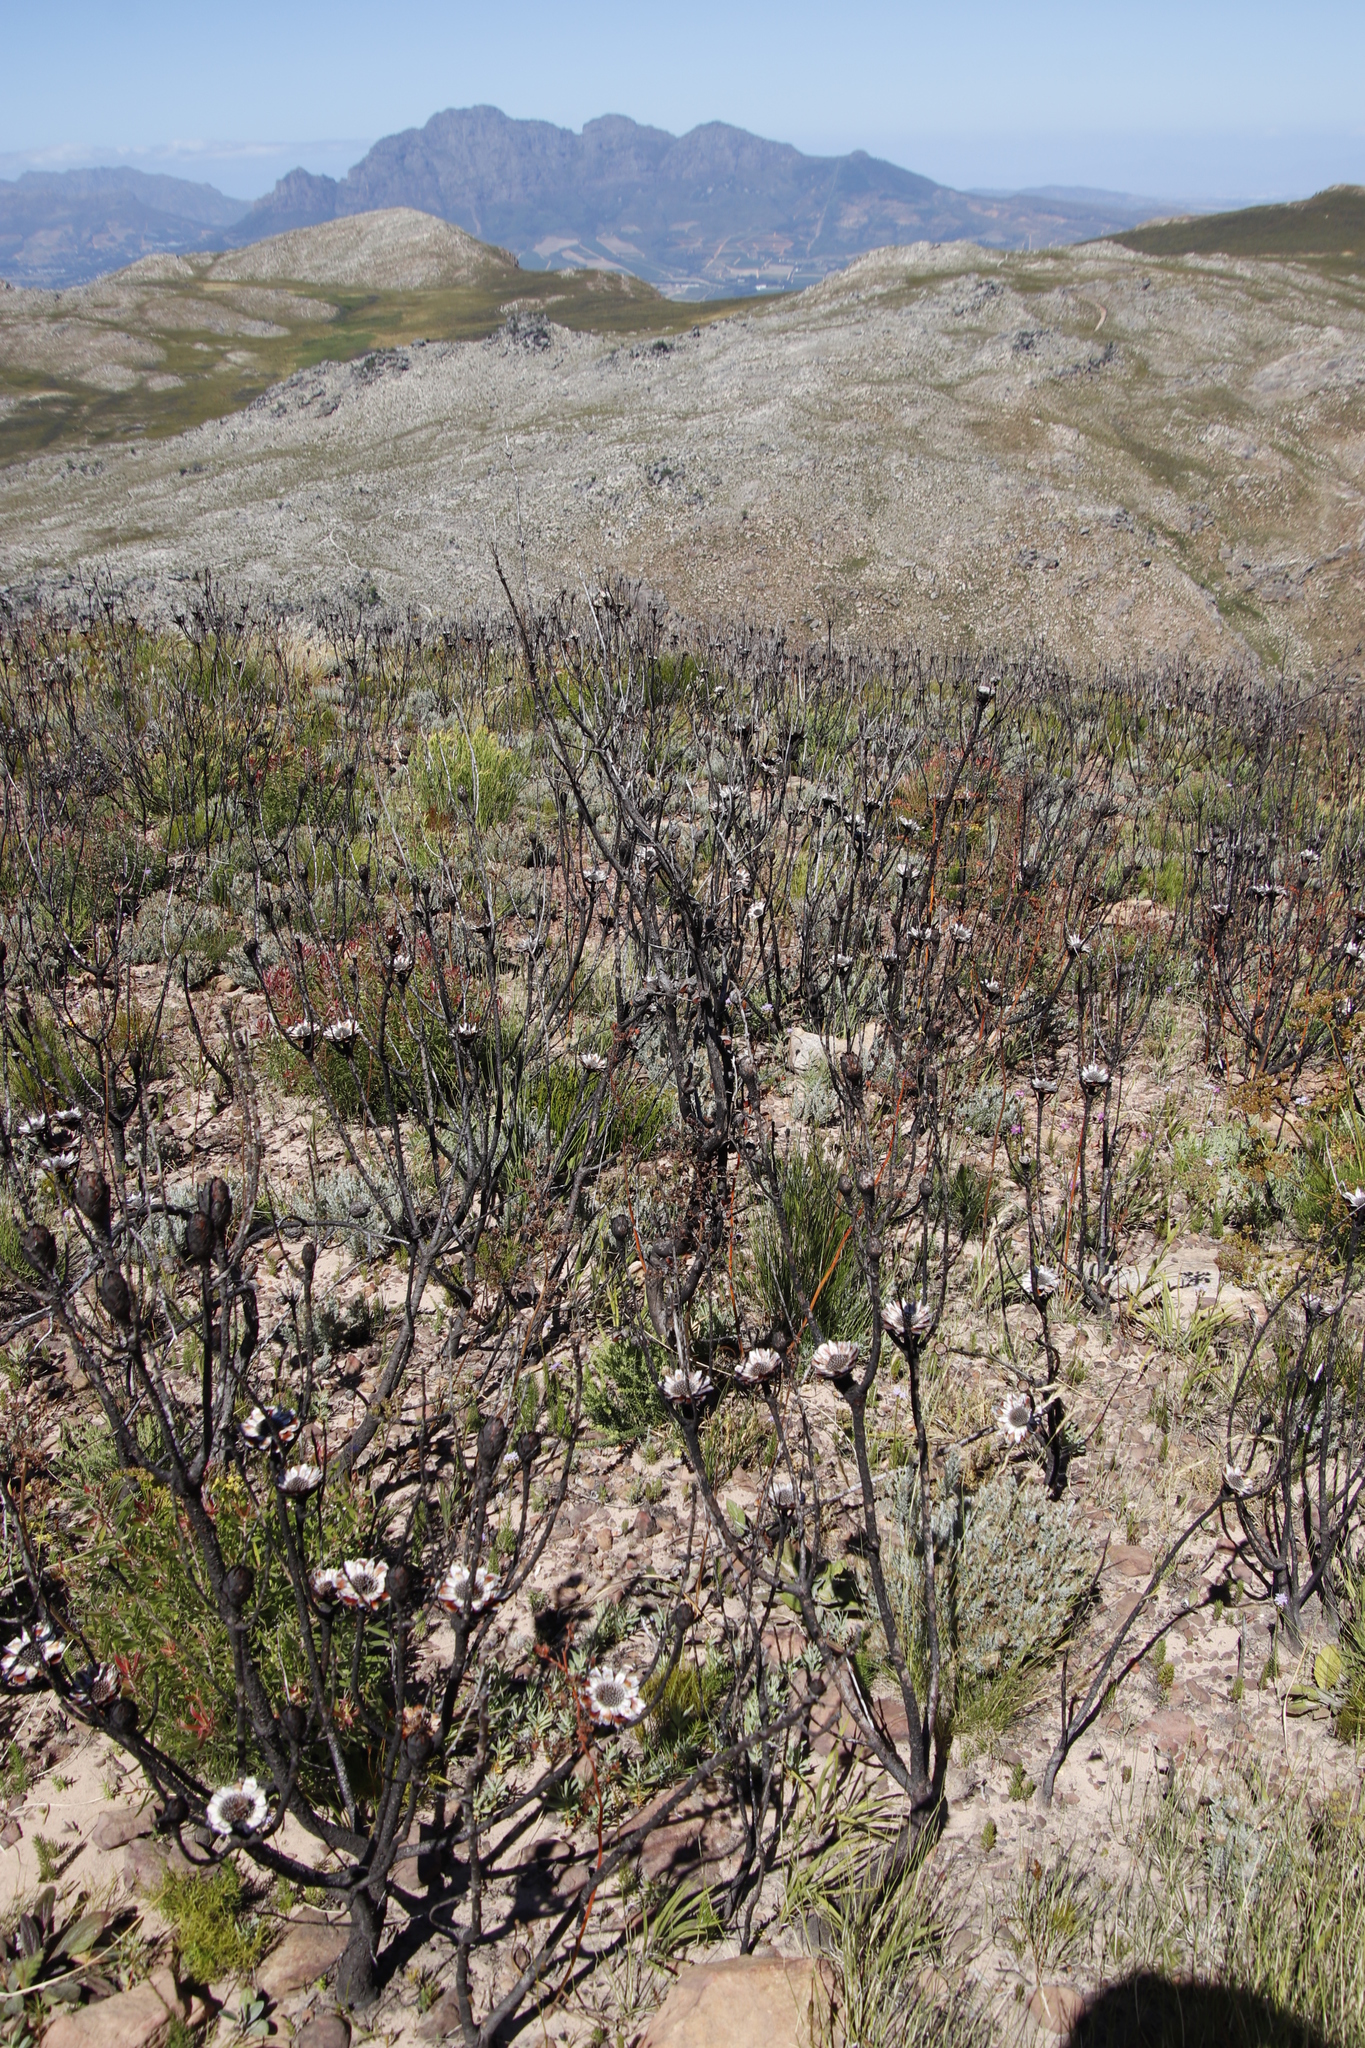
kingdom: Plantae
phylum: Tracheophyta
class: Magnoliopsida
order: Proteales
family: Proteaceae
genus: Protea
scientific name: Protea repens
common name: Sugarbush
